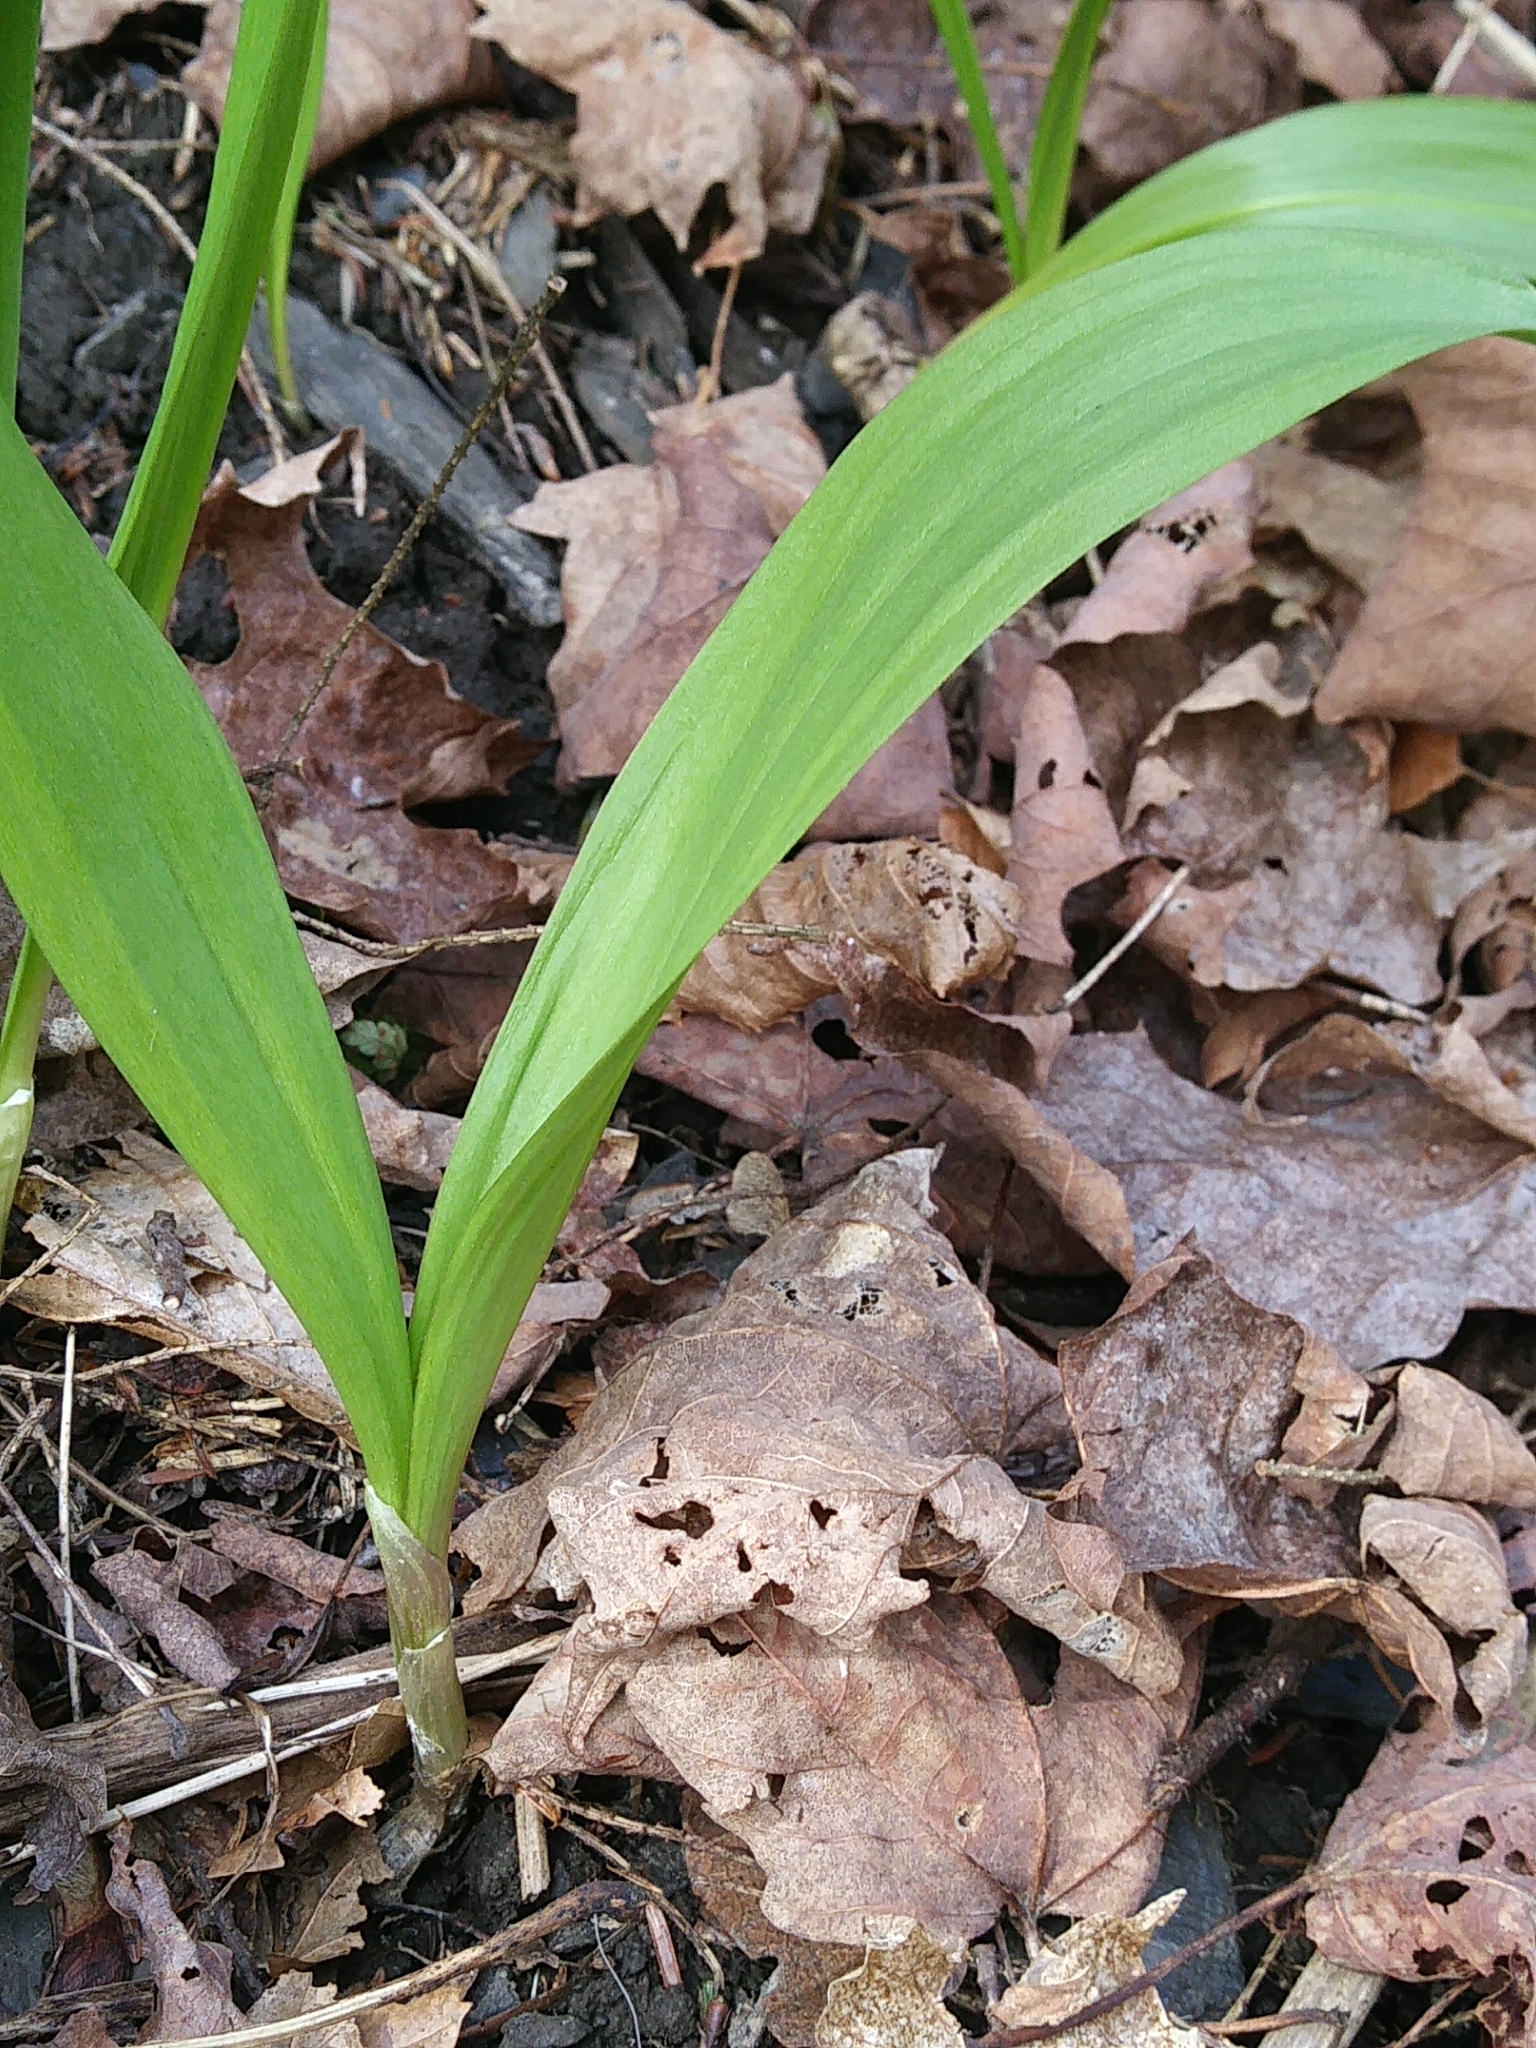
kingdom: Plantae
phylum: Tracheophyta
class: Liliopsida
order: Asparagales
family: Amaryllidaceae
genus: Allium
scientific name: Allium tricoccum
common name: Ramp
